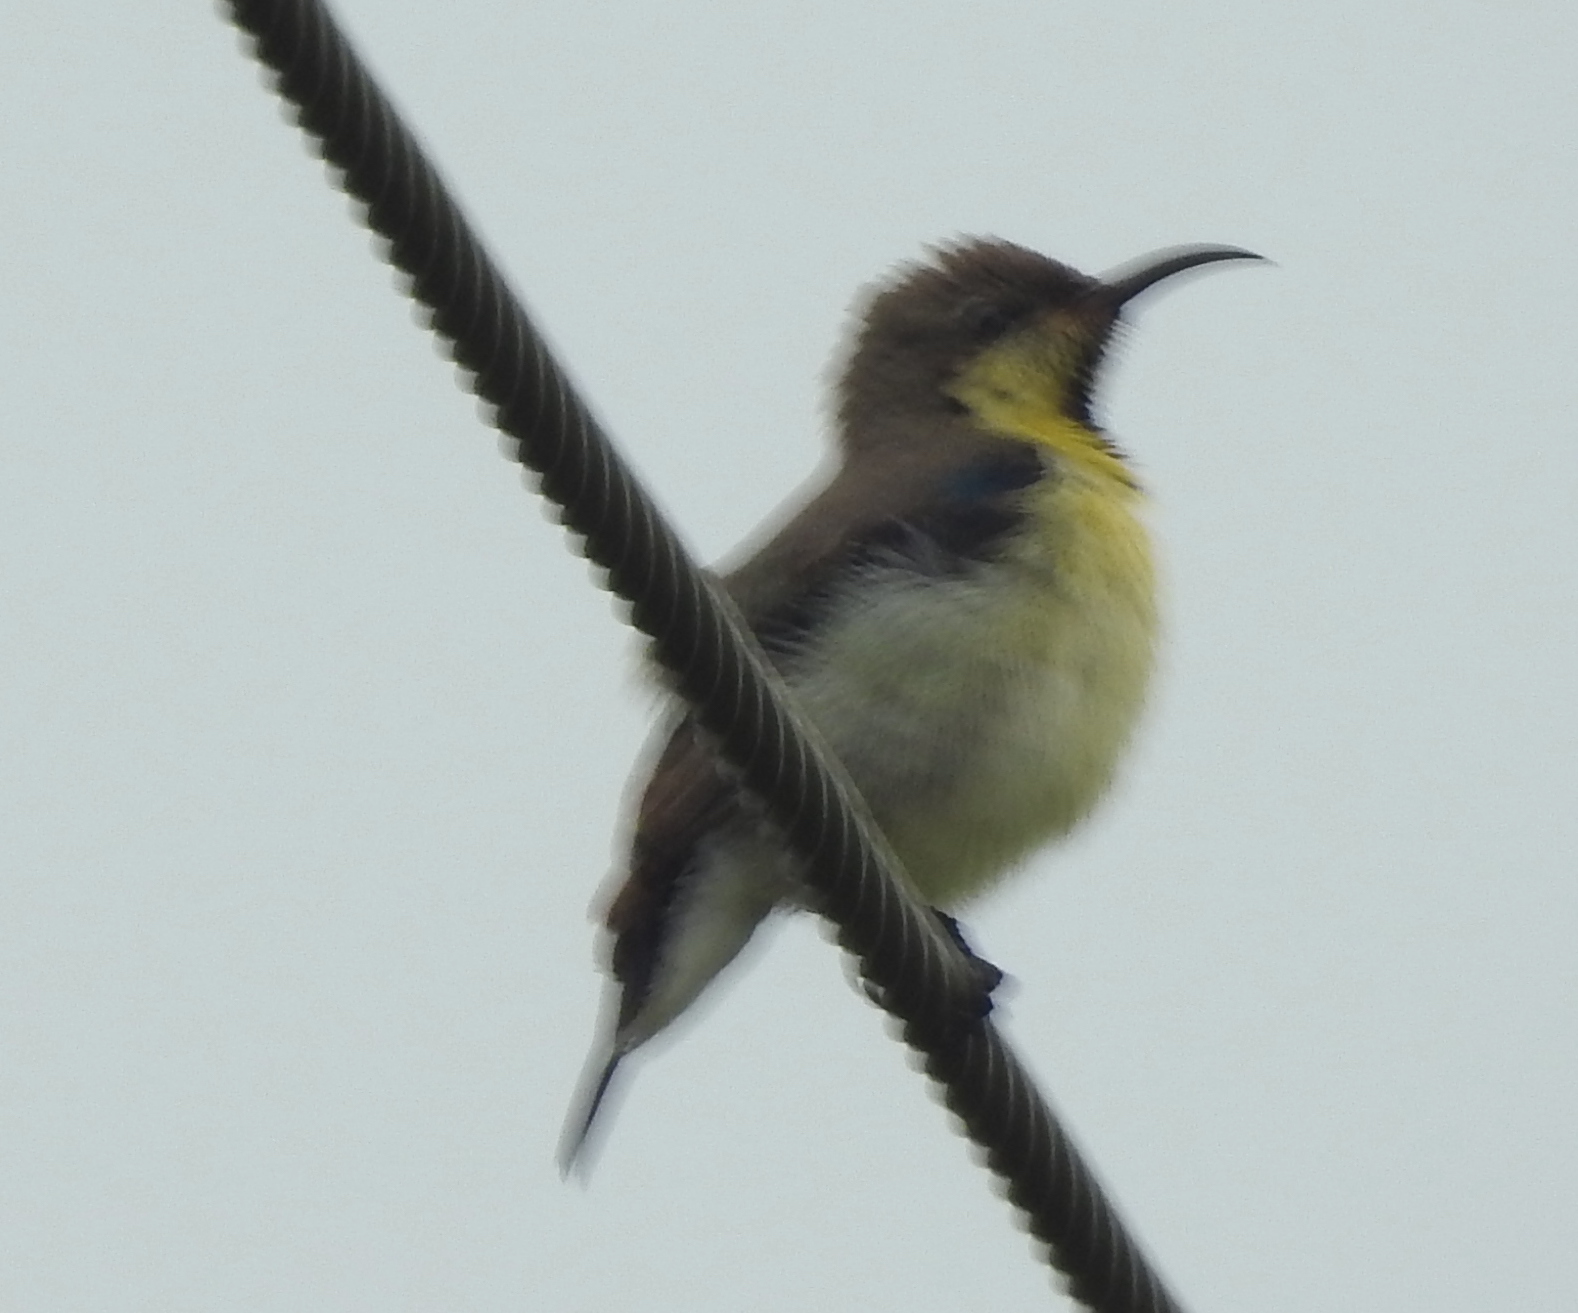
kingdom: Animalia
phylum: Chordata
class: Aves
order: Passeriformes
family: Nectariniidae
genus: Cinnyris
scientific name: Cinnyris asiaticus
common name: Purple sunbird
